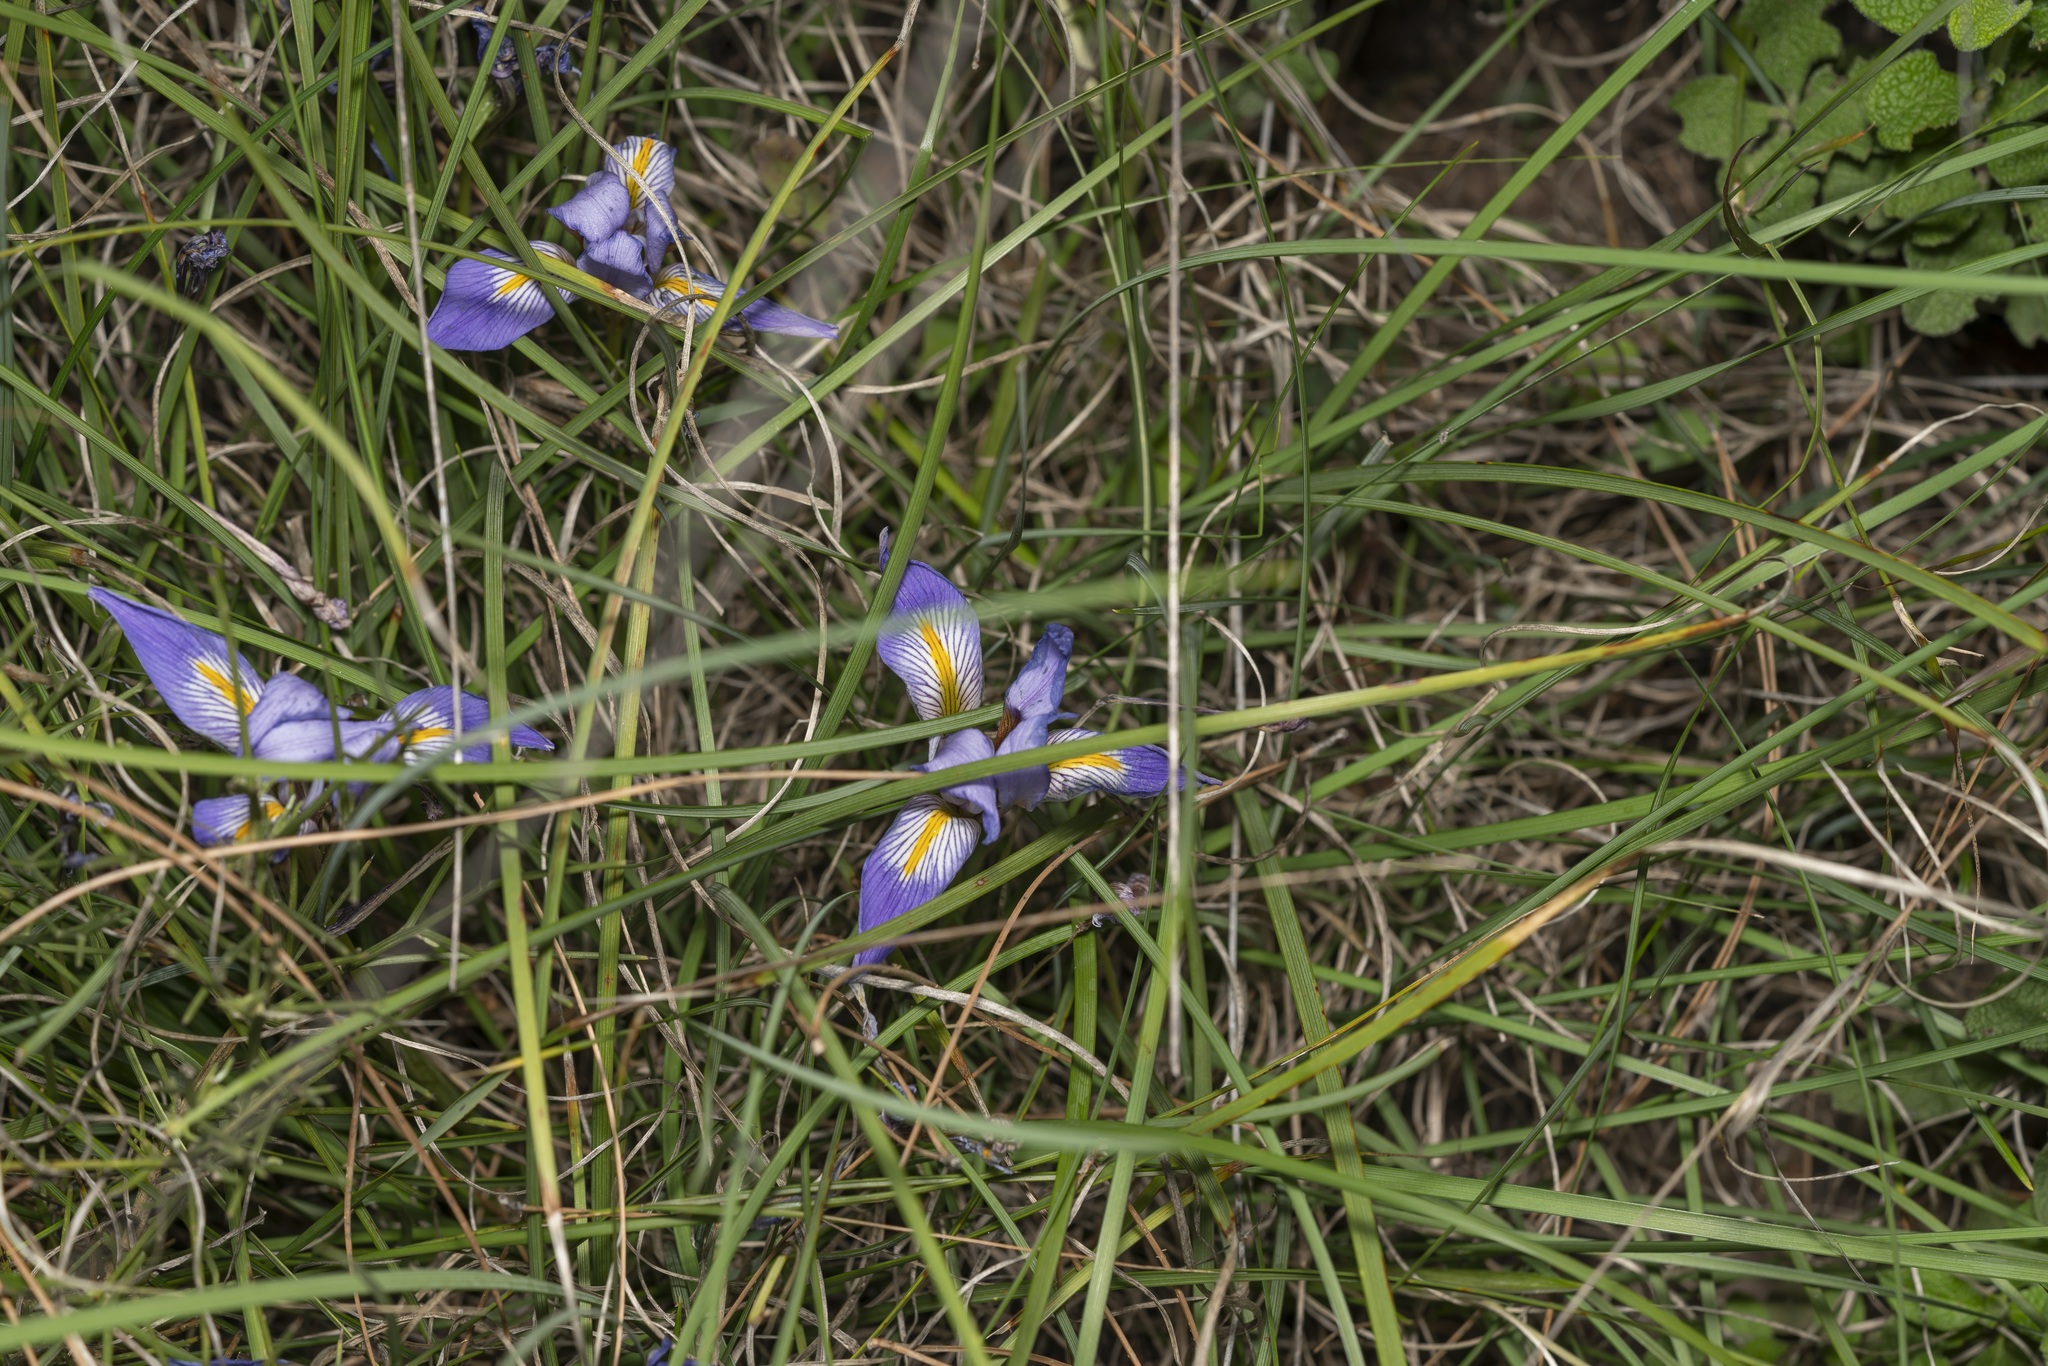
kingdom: Plantae
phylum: Tracheophyta
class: Liliopsida
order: Asparagales
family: Iridaceae
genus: Iris
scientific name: Iris unguicularis
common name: Algerian iris
